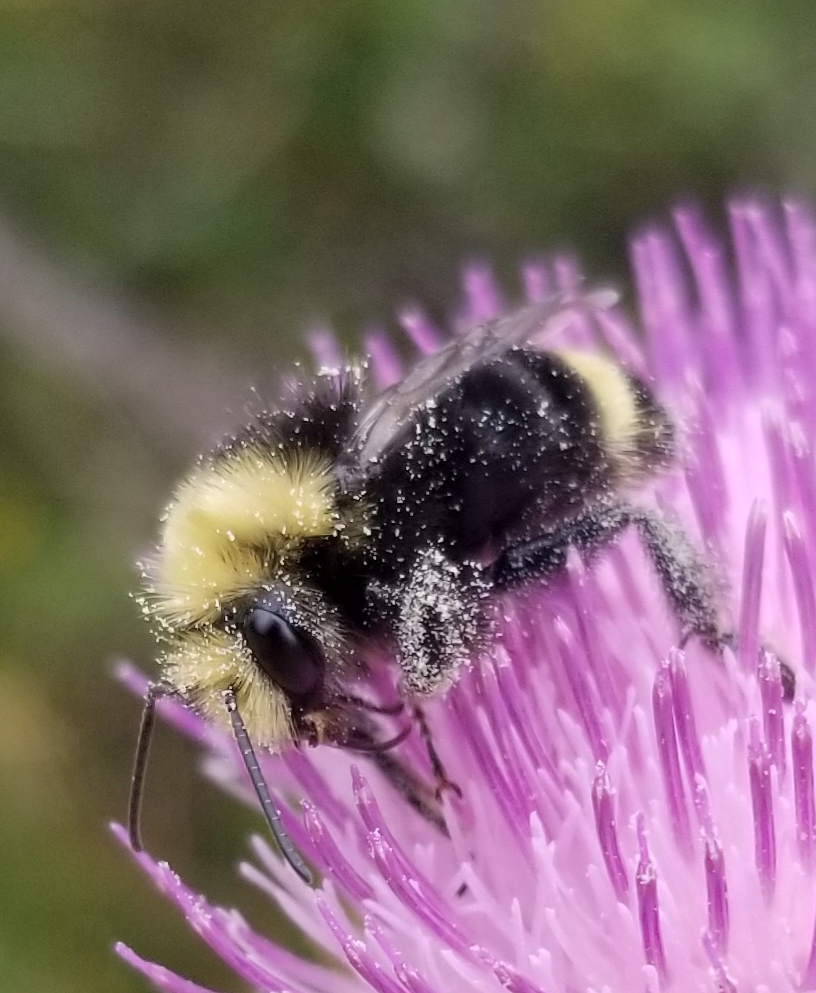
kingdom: Animalia
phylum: Arthropoda
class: Insecta
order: Hymenoptera
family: Apidae
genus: Bombus
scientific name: Bombus vosnesenskii
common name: Vosnesensky bumble bee
